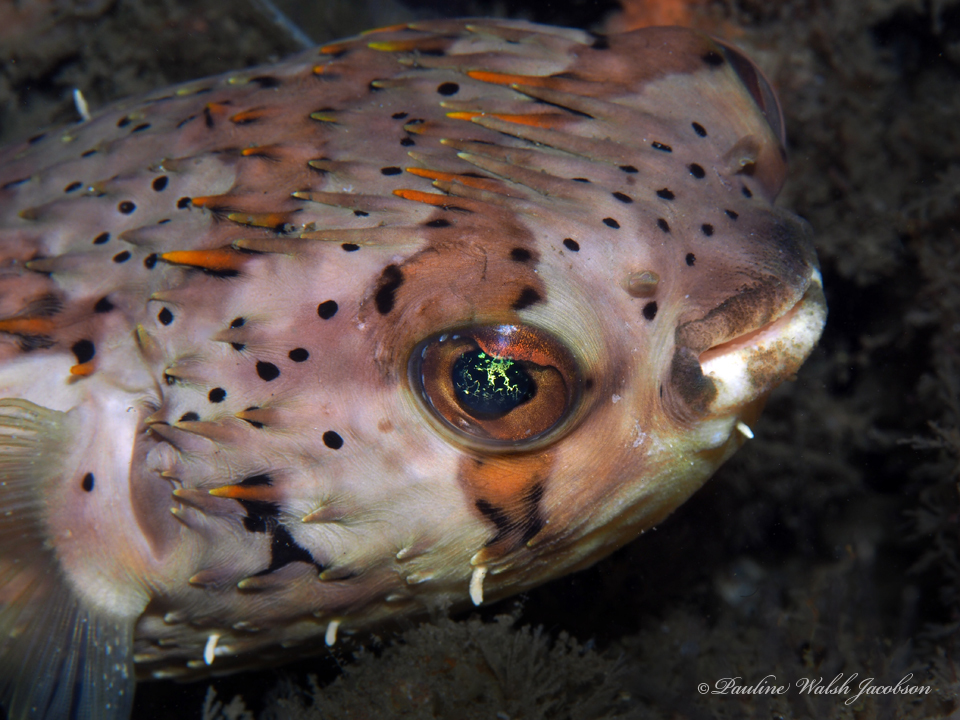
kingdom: Animalia
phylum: Chordata
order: Tetraodontiformes
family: Diodontidae
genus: Diodon
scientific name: Diodon holocanthus
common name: Balloonfish
